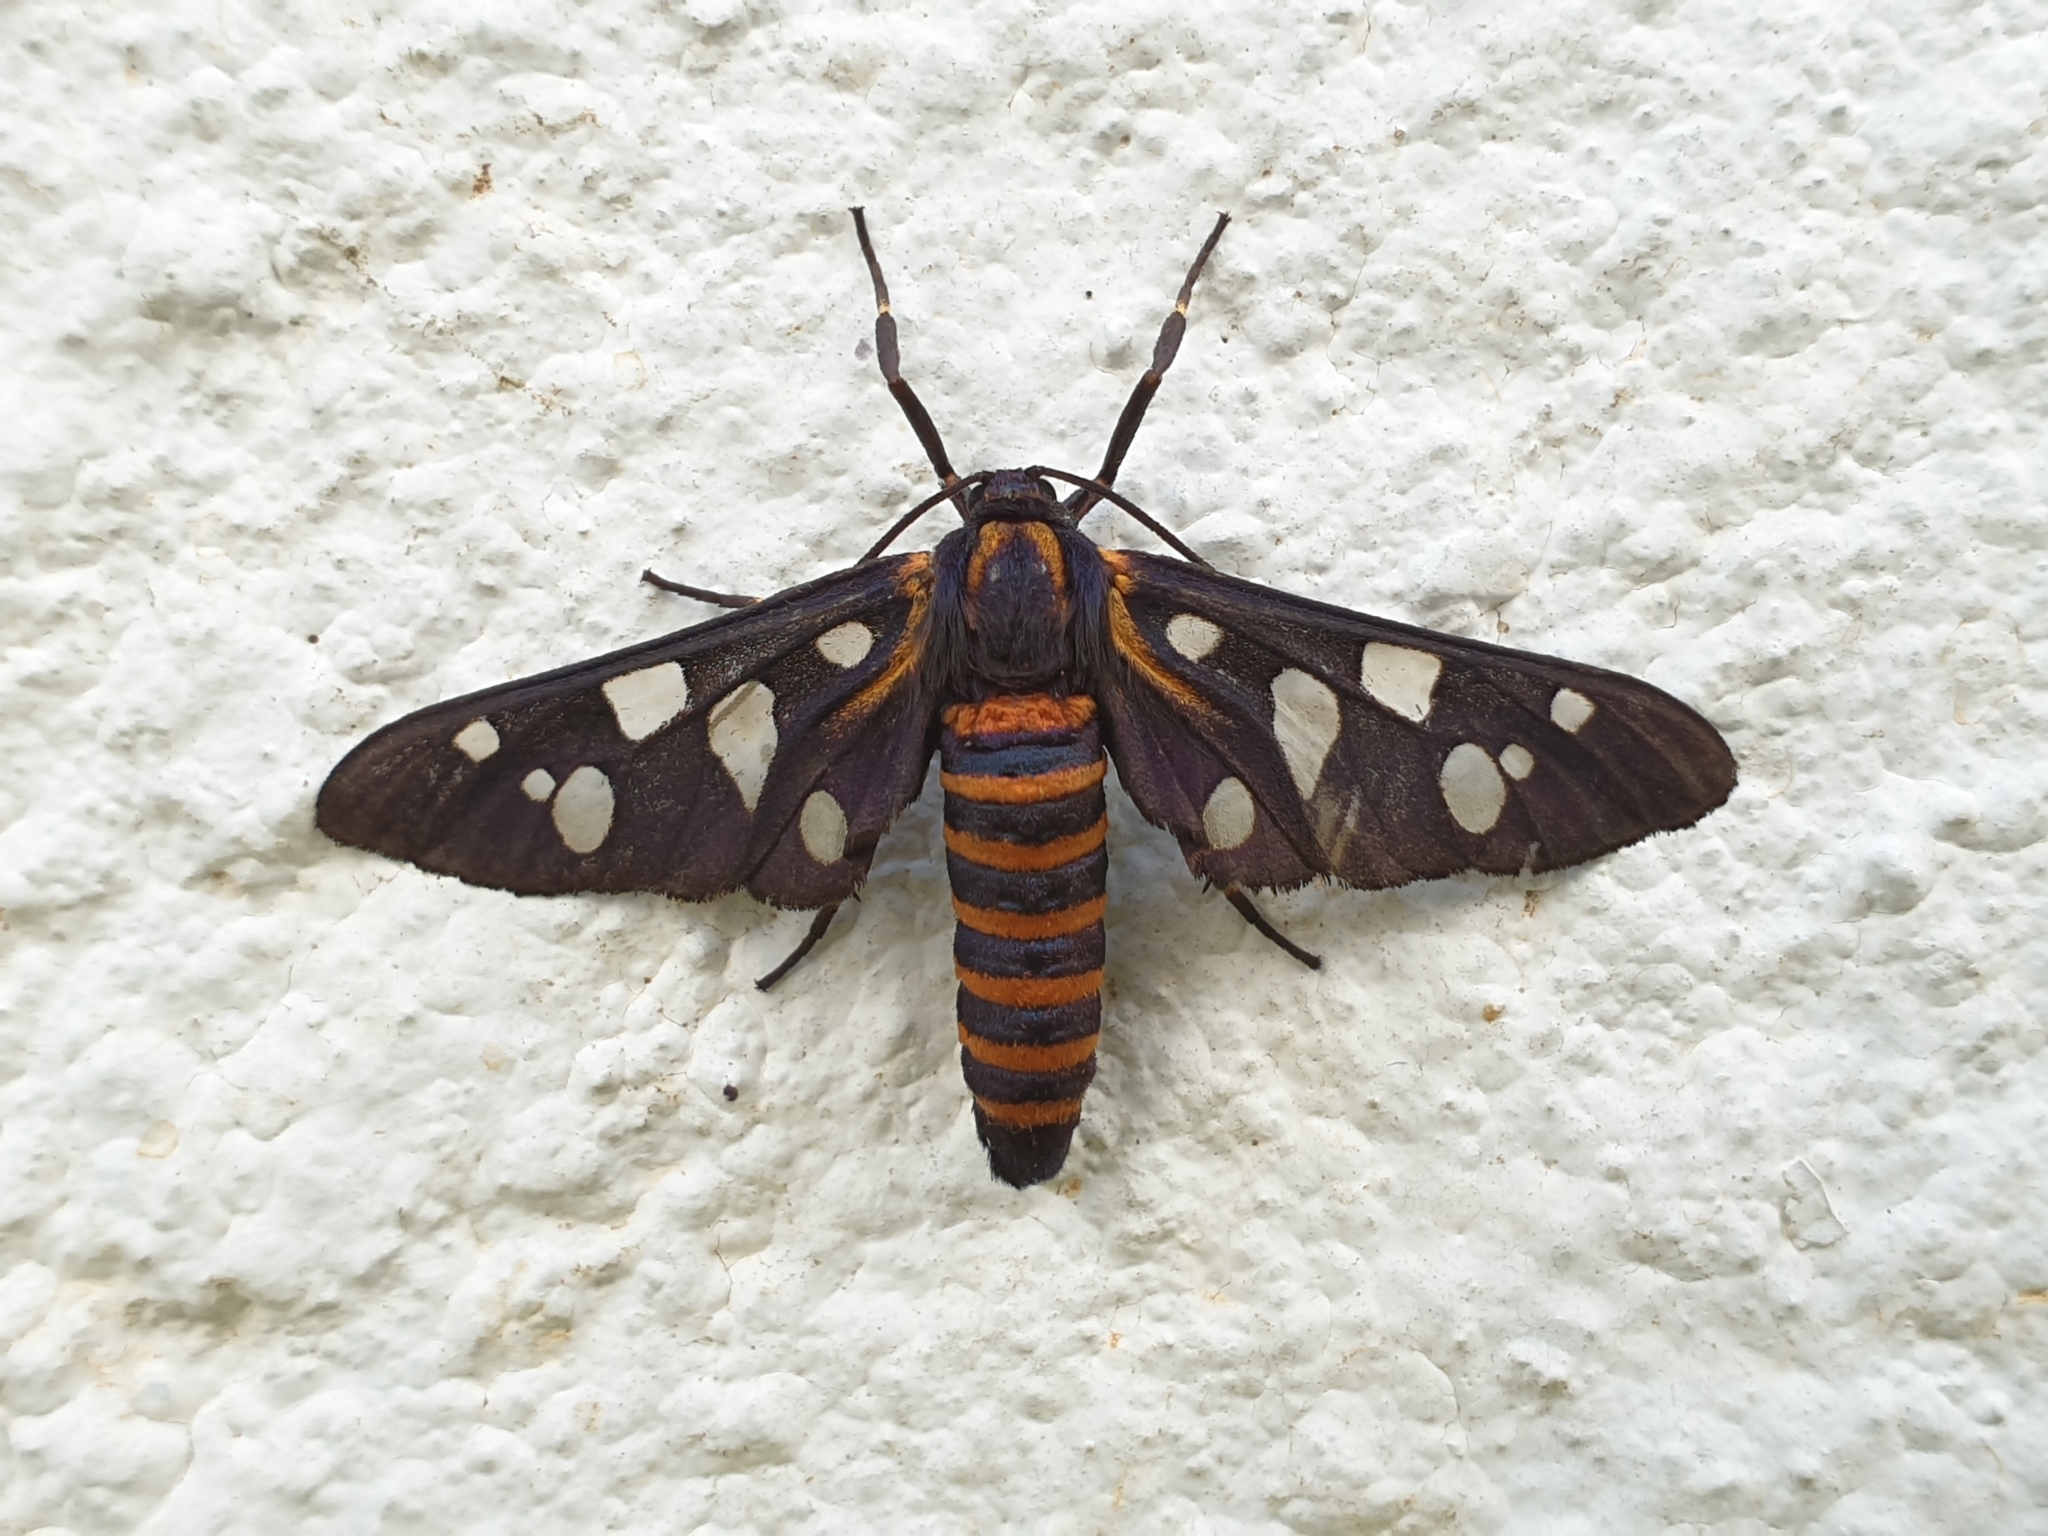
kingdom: Animalia
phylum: Arthropoda
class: Insecta
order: Lepidoptera
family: Erebidae
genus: Amata
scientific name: Amata passalis
